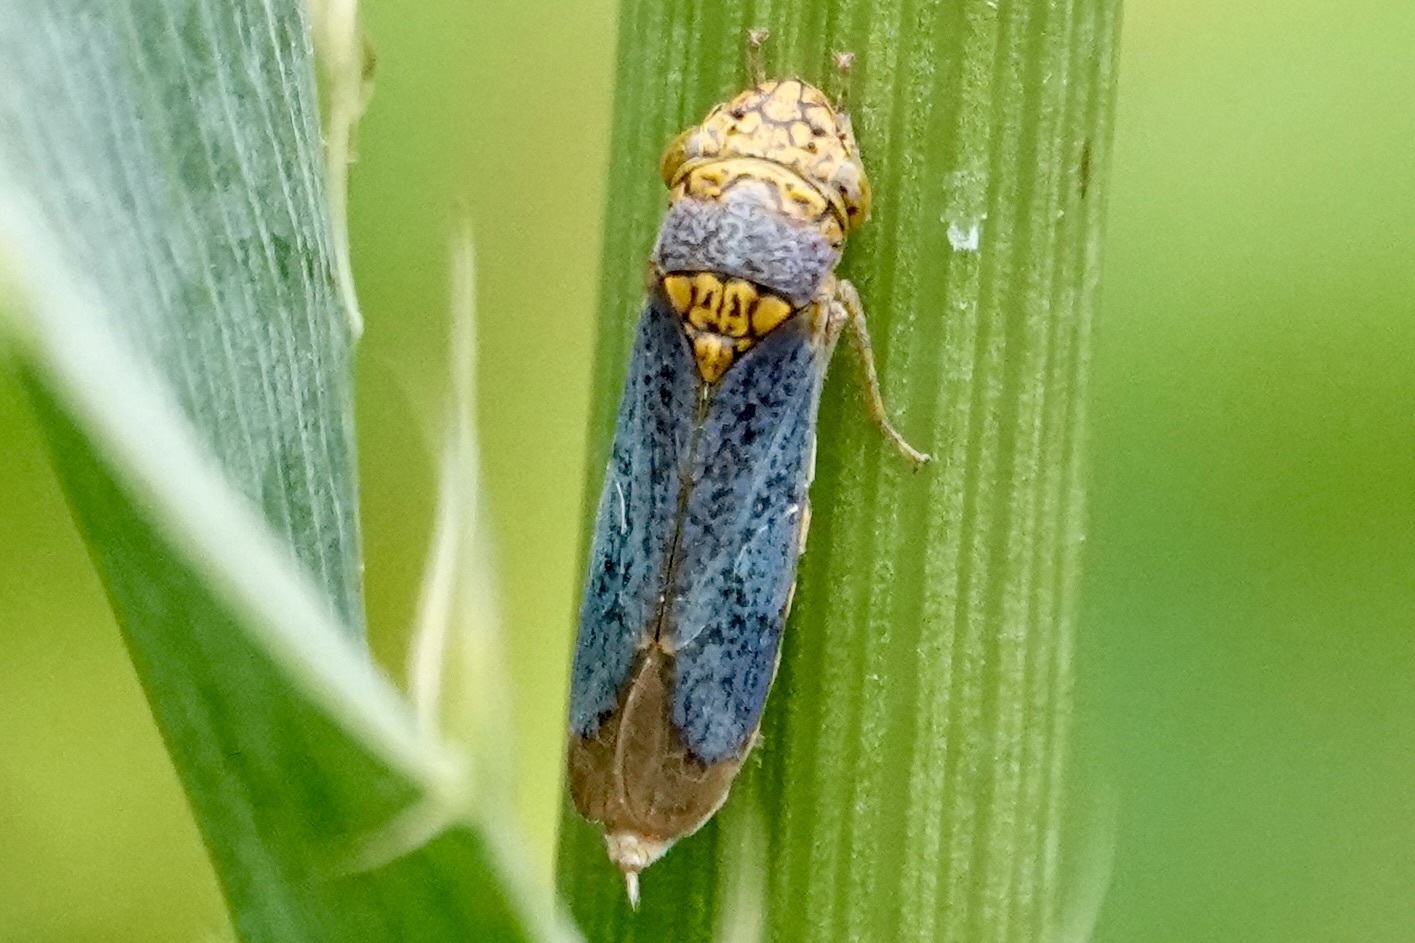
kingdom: Animalia
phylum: Arthropoda
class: Insecta
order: Hemiptera
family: Cicadellidae
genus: Oncometopia
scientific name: Oncometopia orbona
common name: Broad-headed sharpshooter
